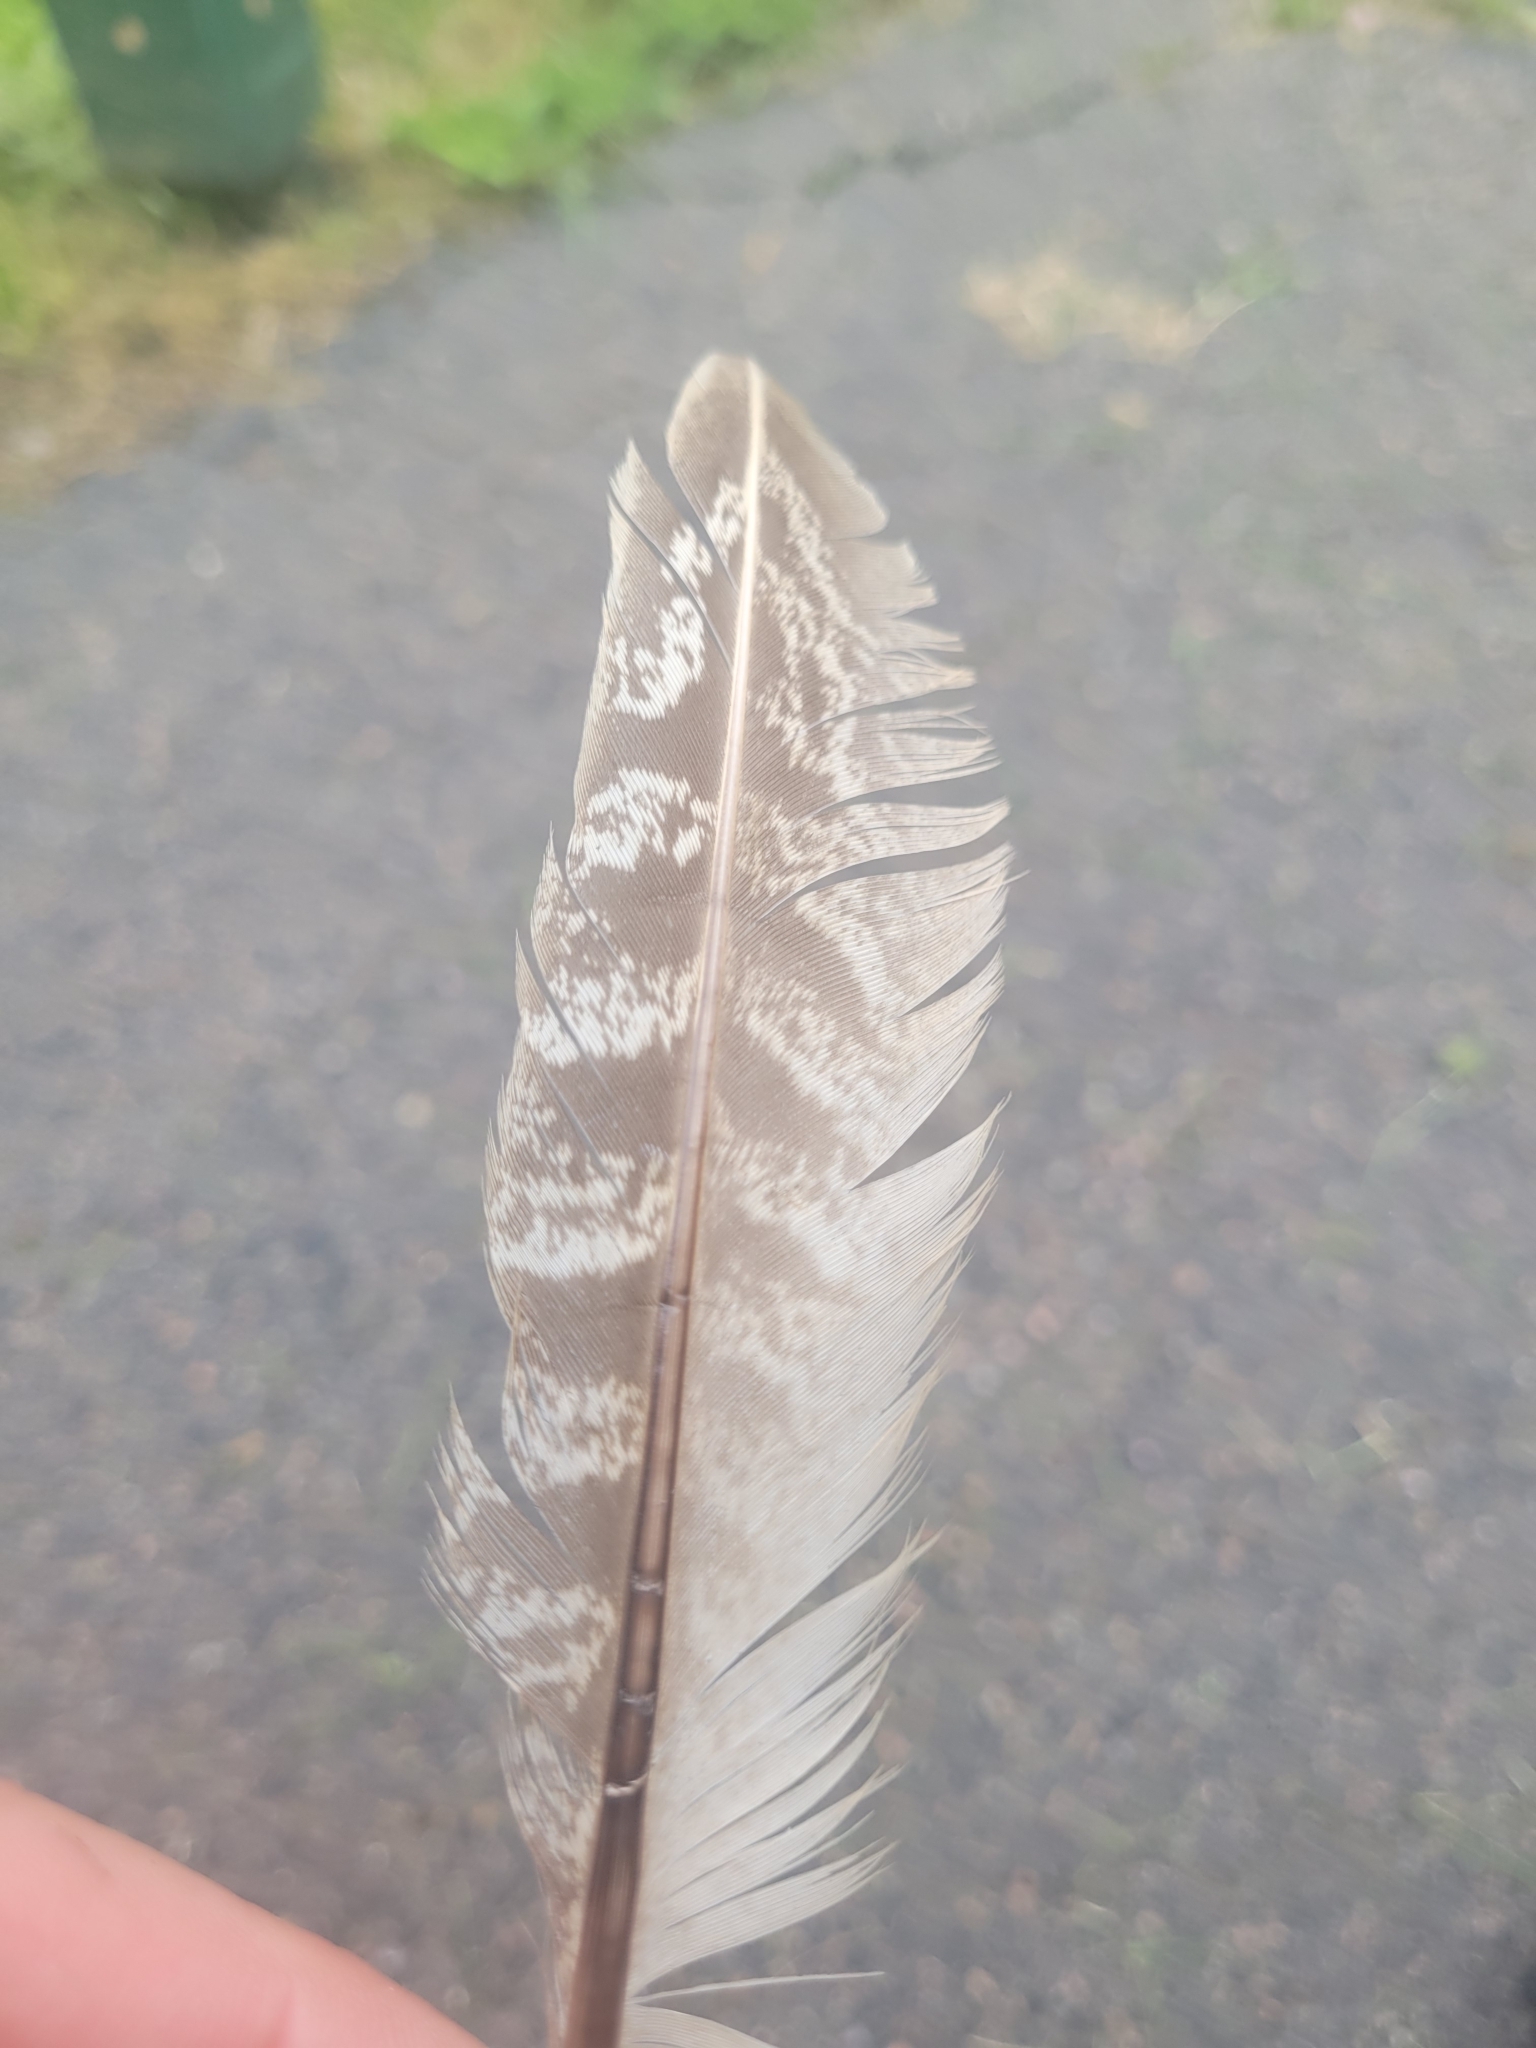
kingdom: Animalia
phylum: Chordata
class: Aves
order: Galliformes
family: Phasianidae
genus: Phasianus
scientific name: Phasianus colchicus
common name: Common pheasant
